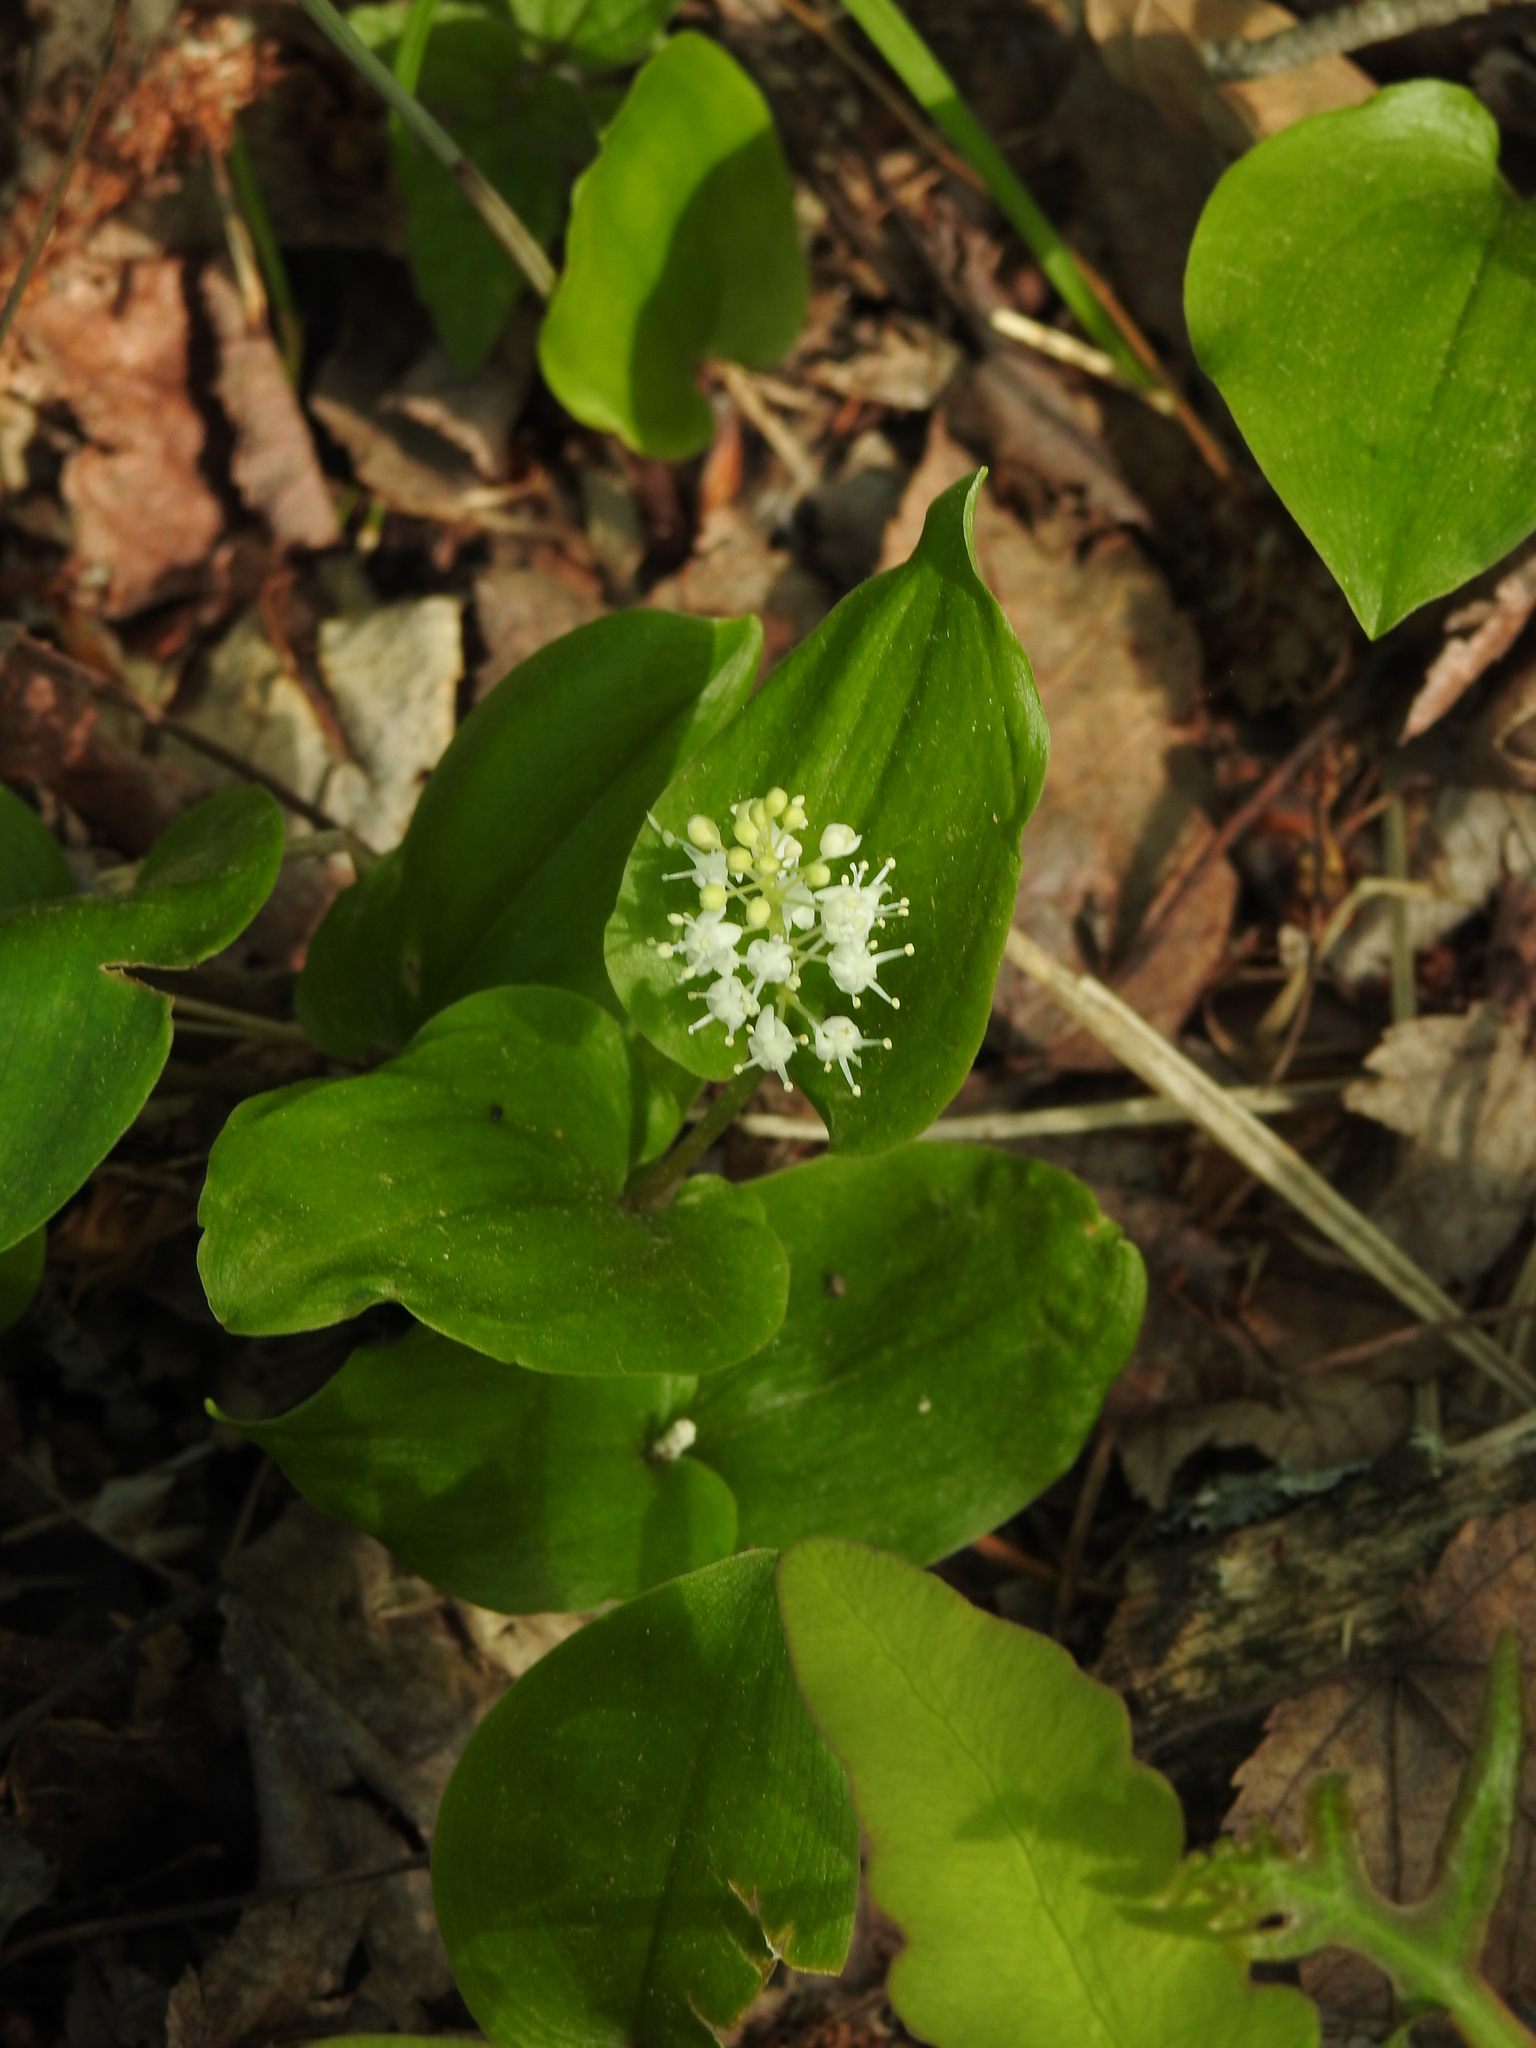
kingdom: Plantae
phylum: Tracheophyta
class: Liliopsida
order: Asparagales
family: Asparagaceae
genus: Maianthemum
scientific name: Maianthemum canadense
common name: False lily-of-the-valley
